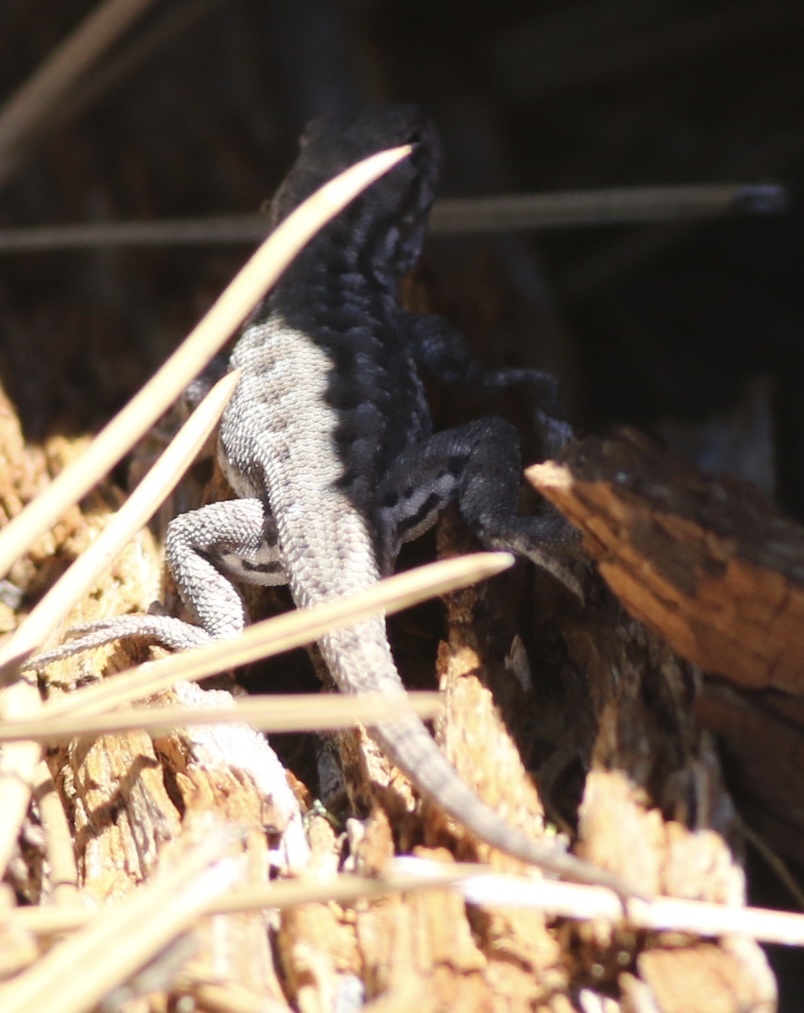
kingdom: Animalia
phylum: Chordata
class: Squamata
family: Phrynosomatidae
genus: Sceloporus
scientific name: Sceloporus graciosus
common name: Sagebrush lizard
